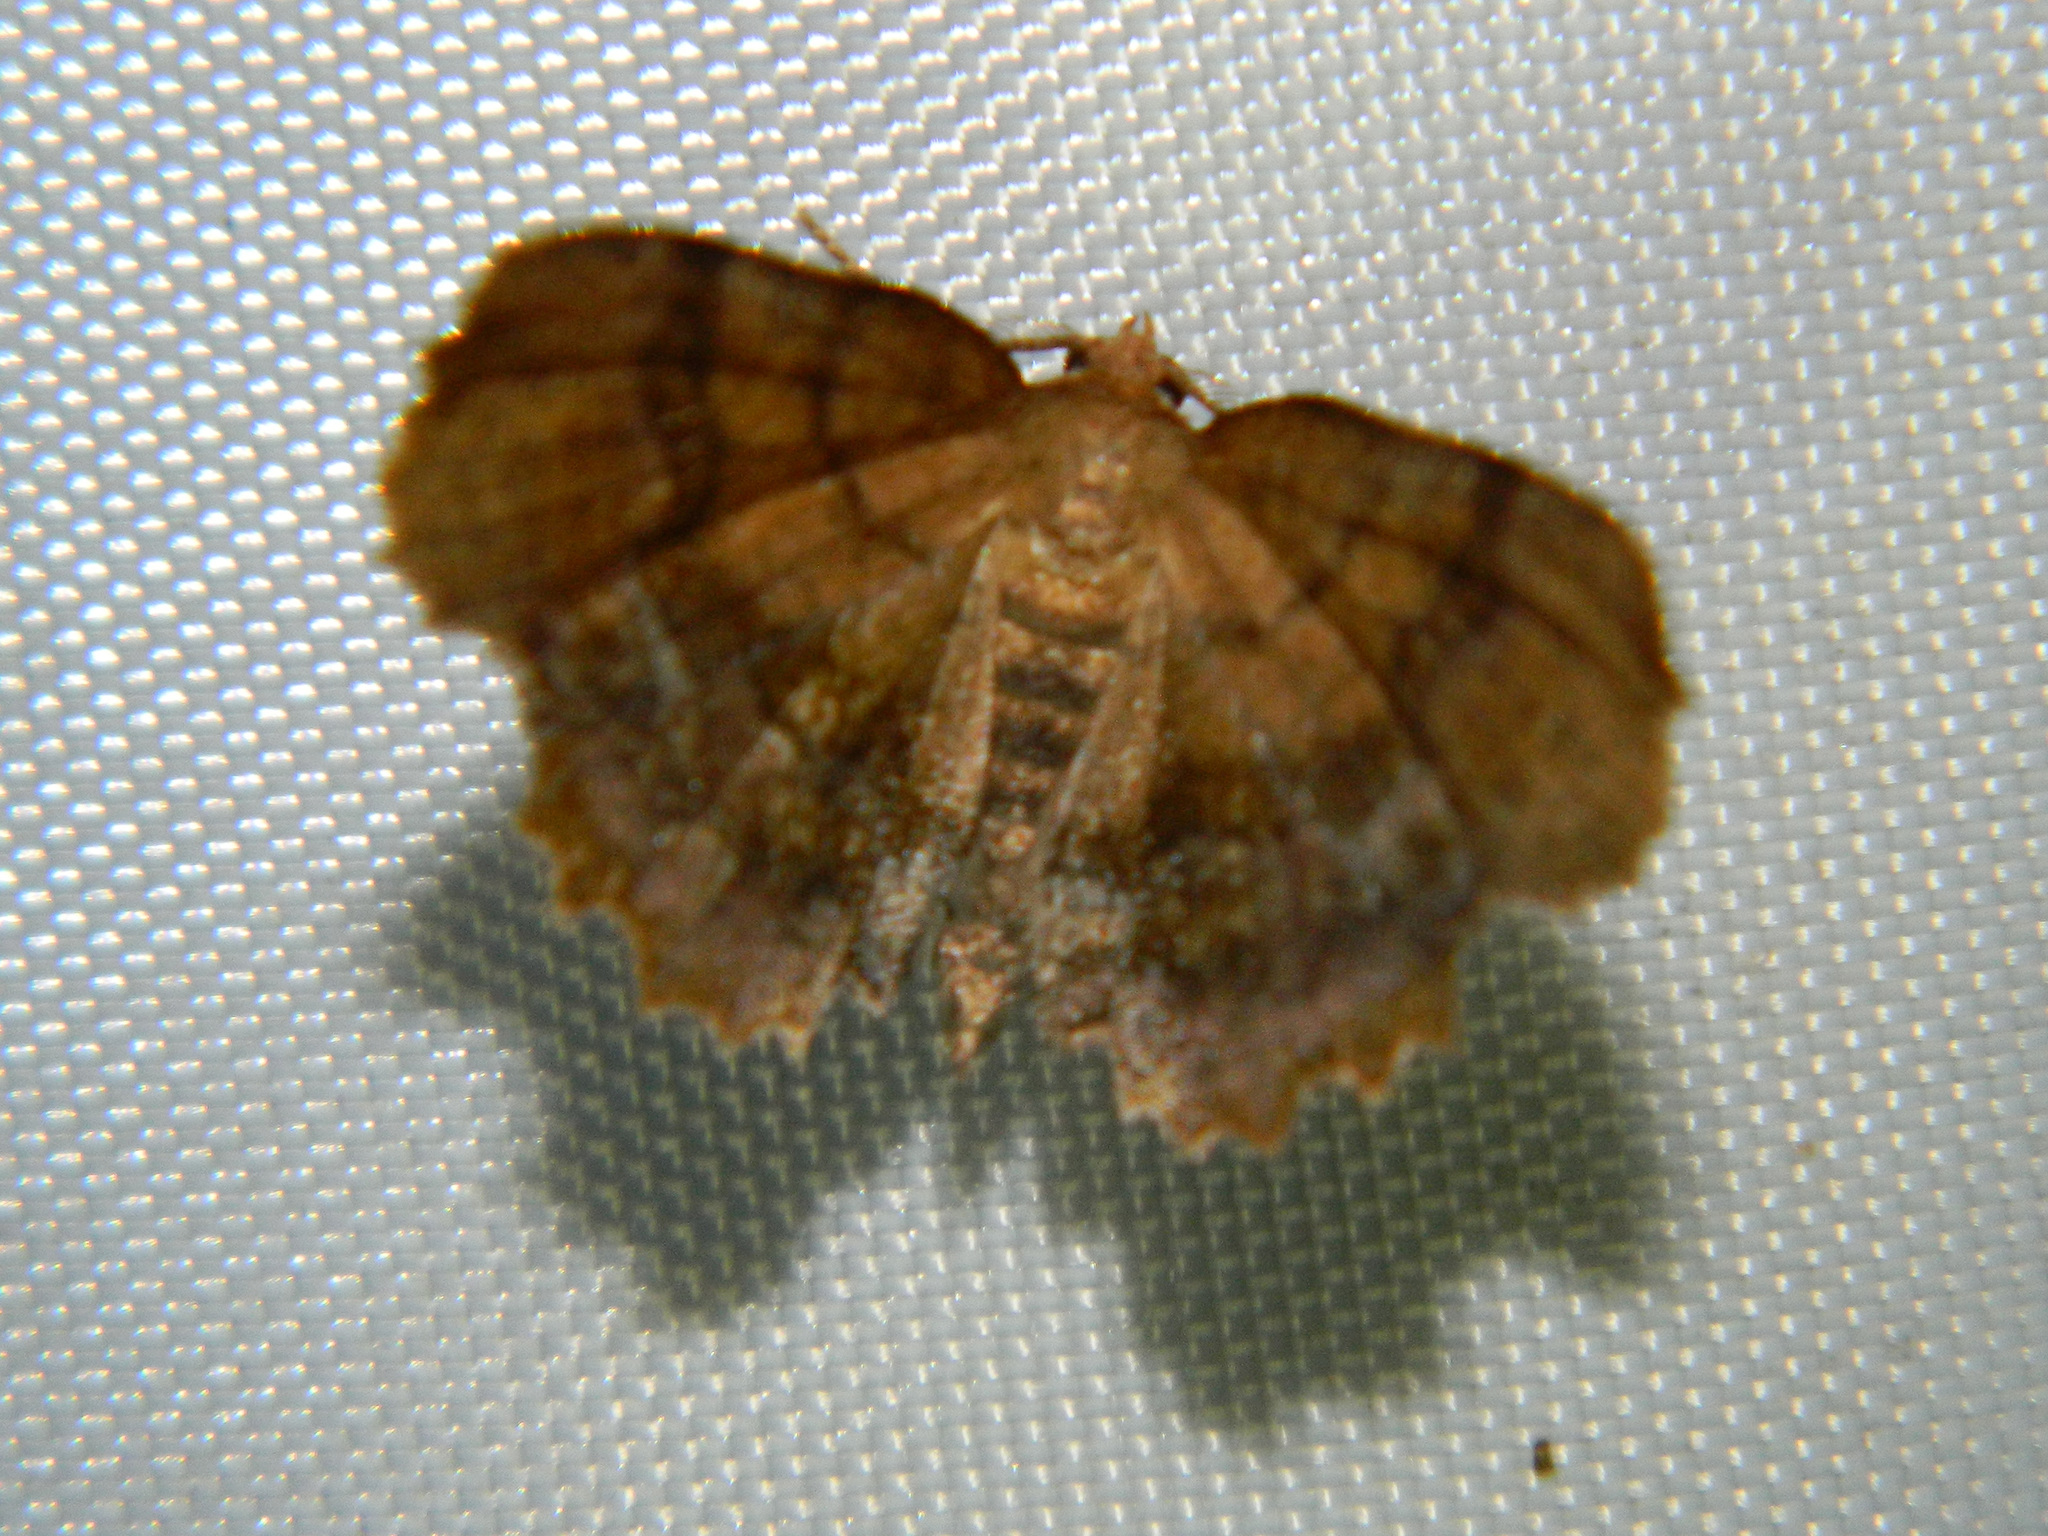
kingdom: Animalia
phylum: Arthropoda
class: Insecta
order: Lepidoptera
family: Geometridae
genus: Cepphis
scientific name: Cepphis armataria
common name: Scallop moth
